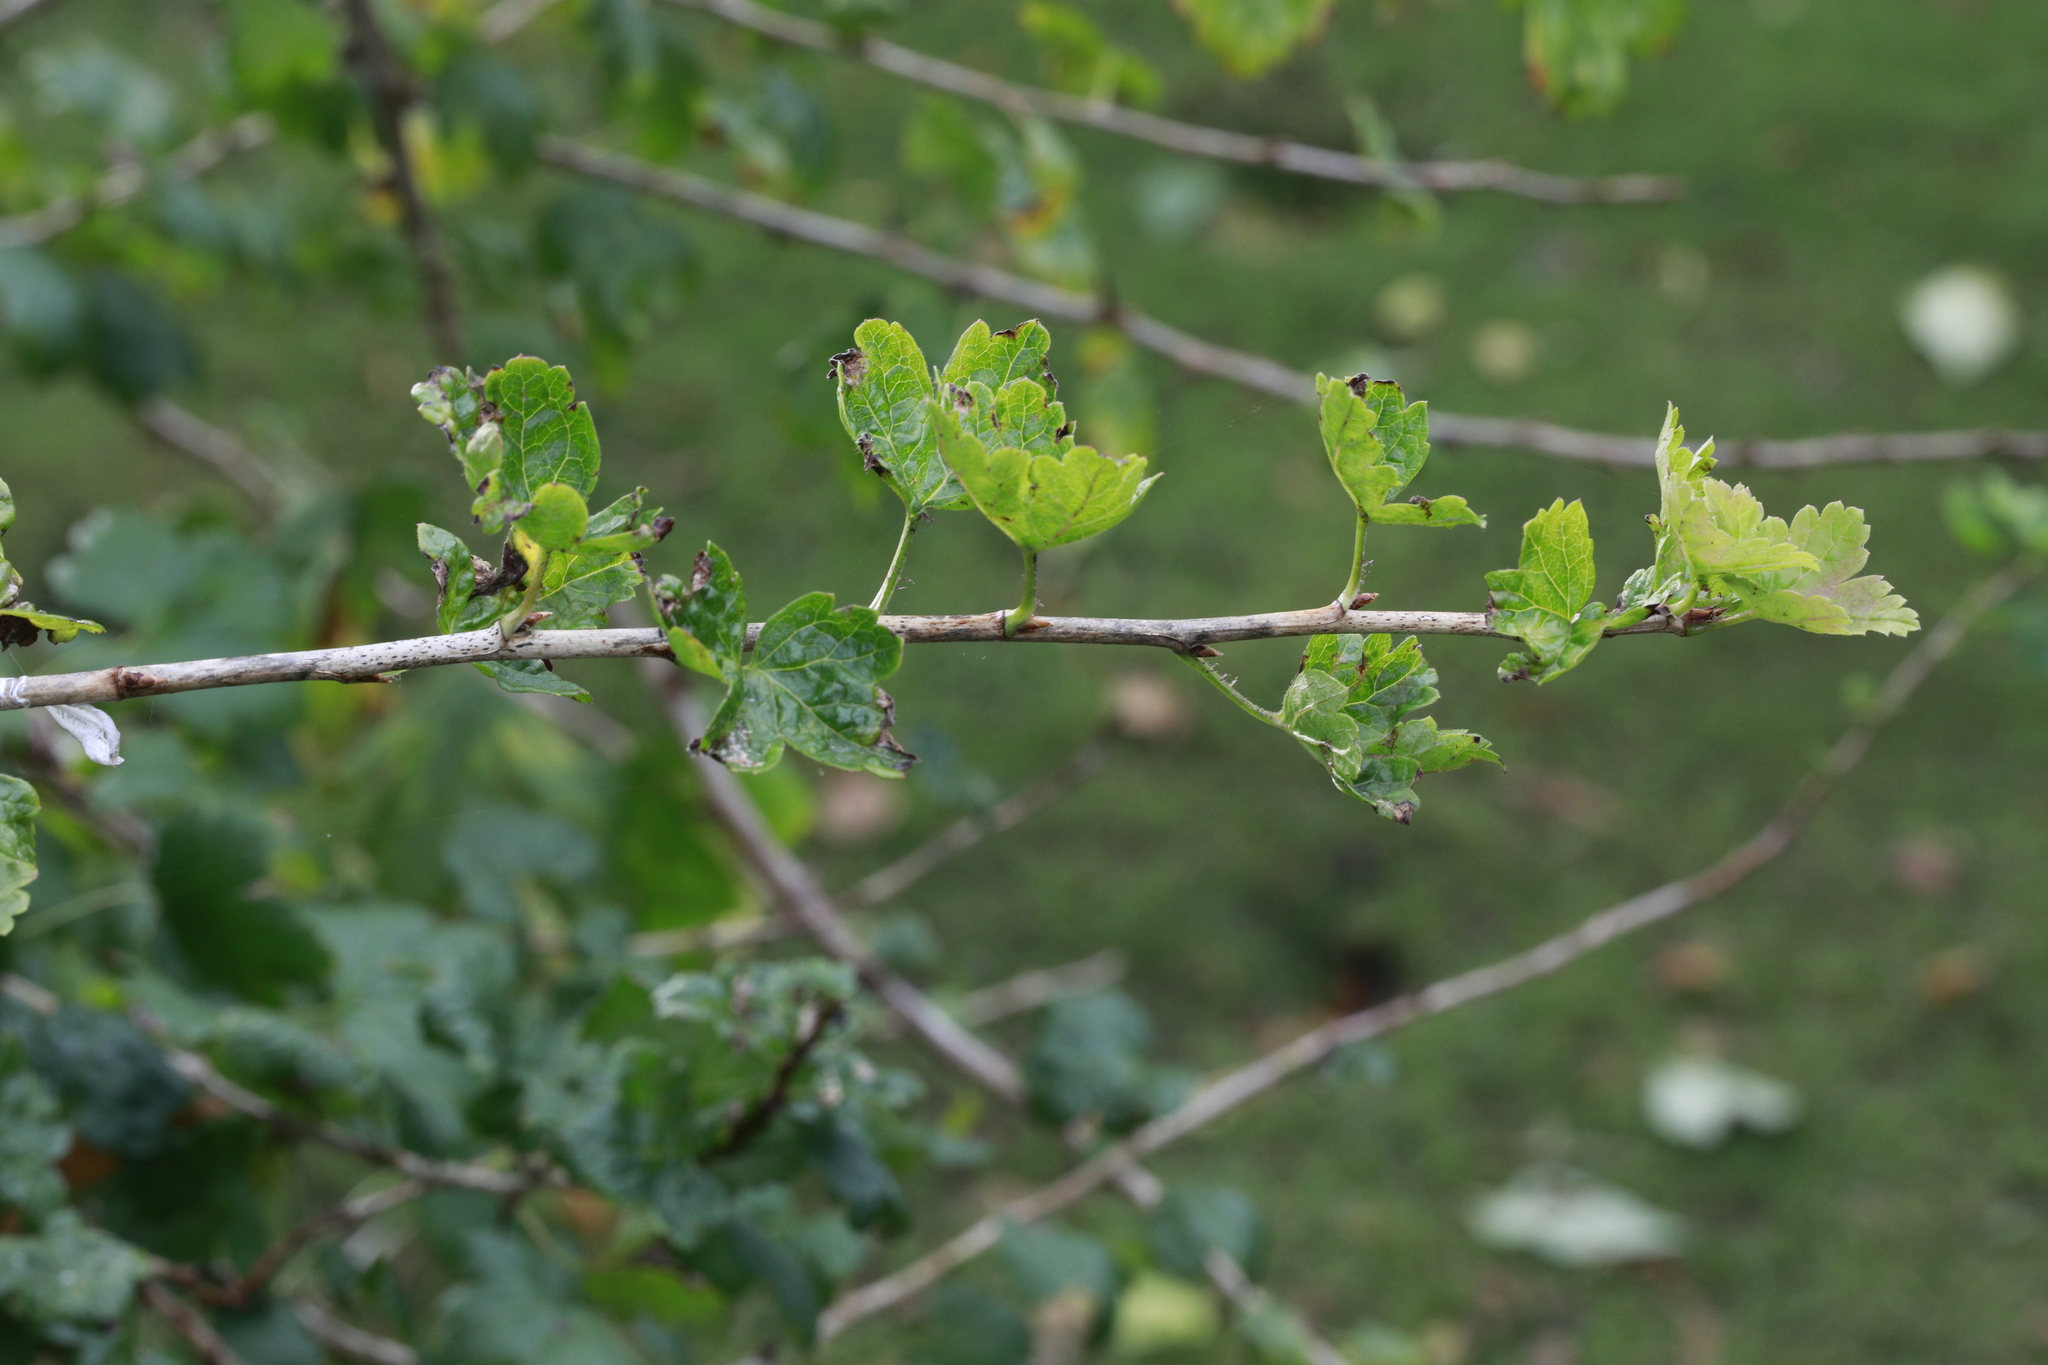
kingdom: Plantae
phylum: Tracheophyta
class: Magnoliopsida
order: Saxifragales
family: Grossulariaceae
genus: Ribes
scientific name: Ribes uva-crispa
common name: Gooseberry
